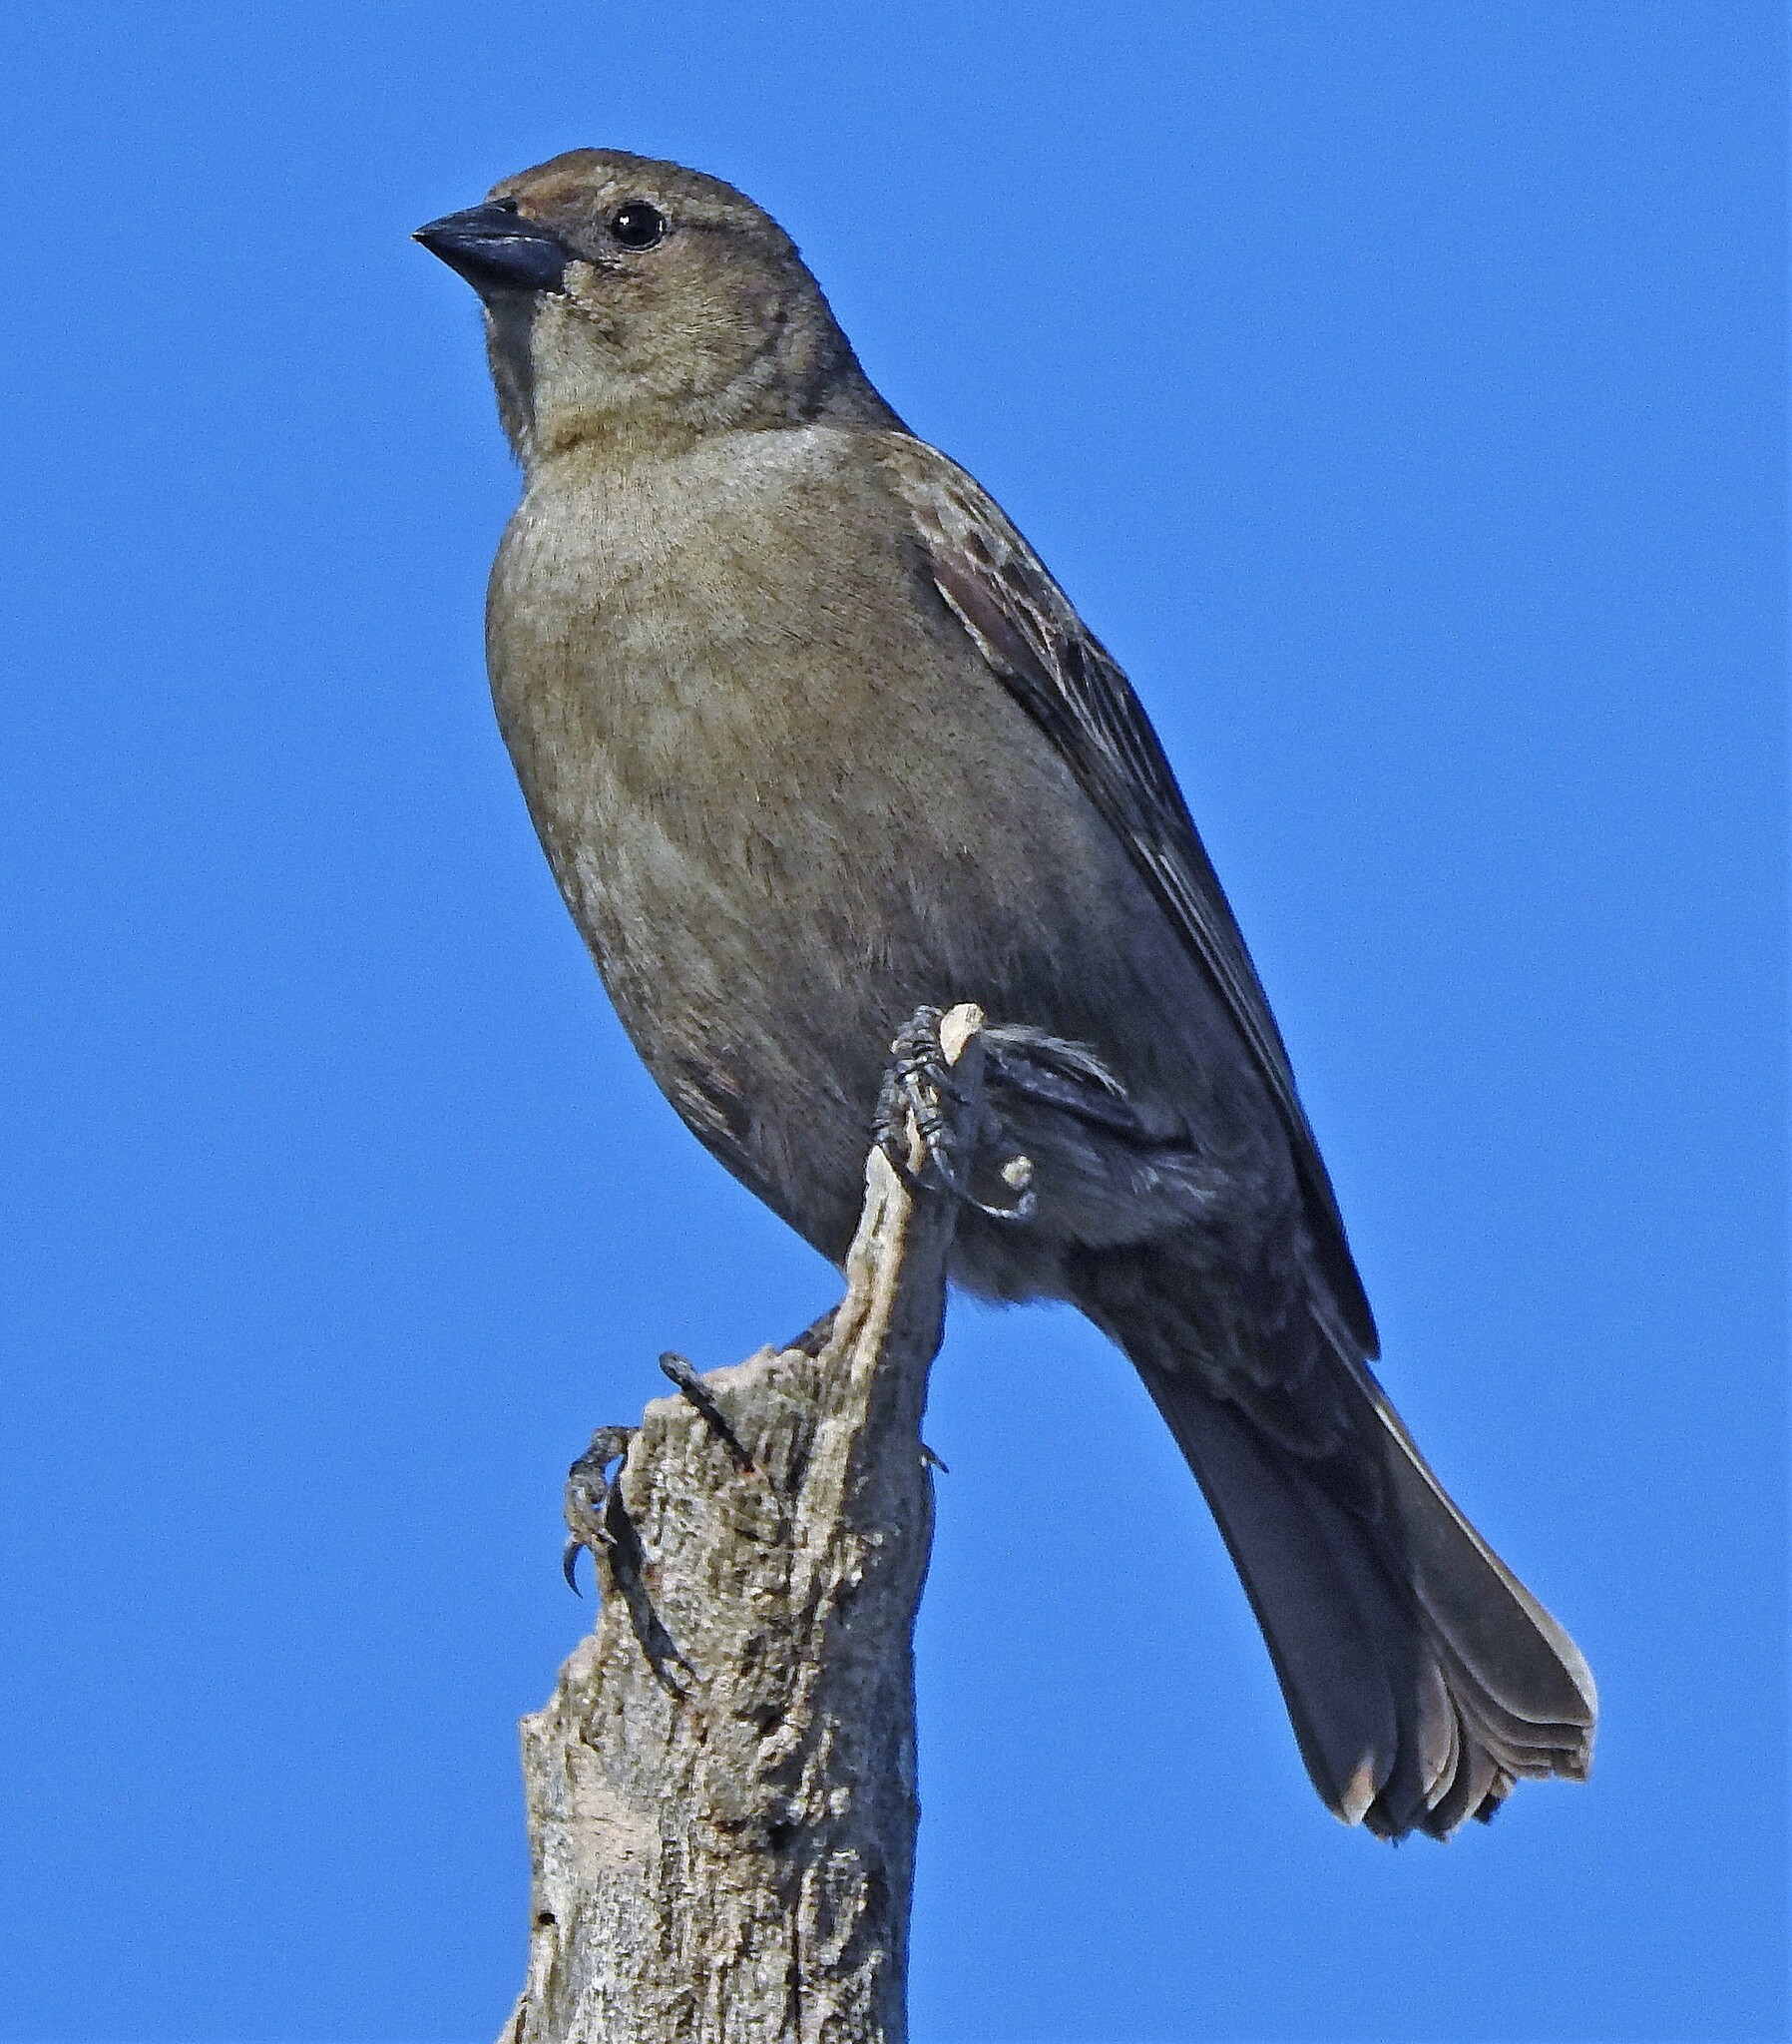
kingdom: Animalia
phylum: Chordata
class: Aves
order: Passeriformes
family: Icteridae
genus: Molothrus
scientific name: Molothrus bonariensis
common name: Shiny cowbird
